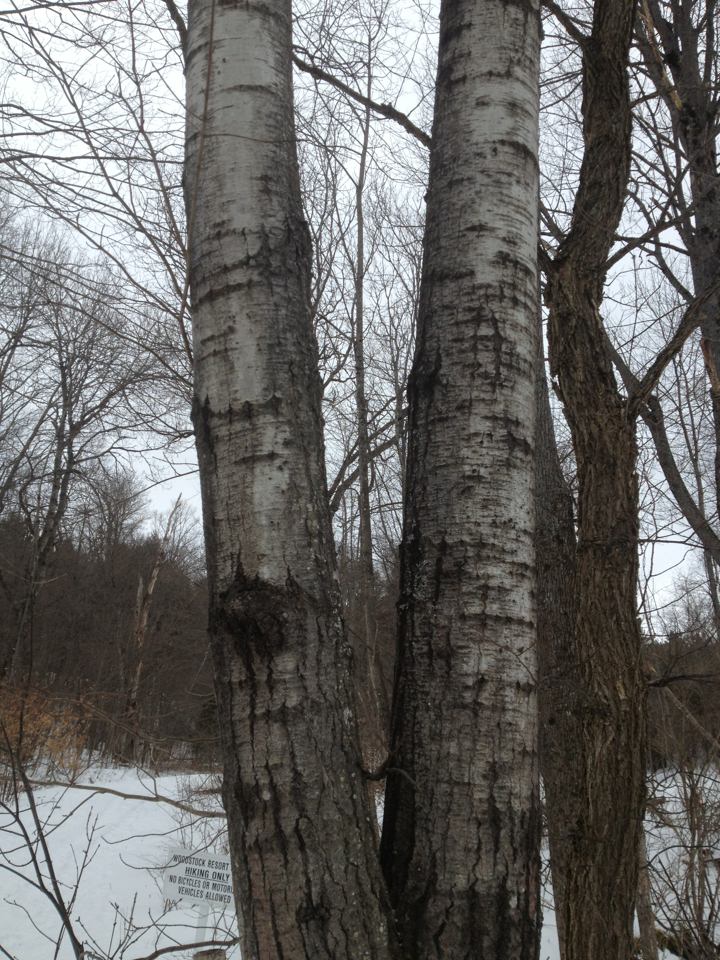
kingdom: Plantae
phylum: Tracheophyta
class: Magnoliopsida
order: Malpighiales
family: Salicaceae
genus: Populus
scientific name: Populus tremuloides
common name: Quaking aspen
